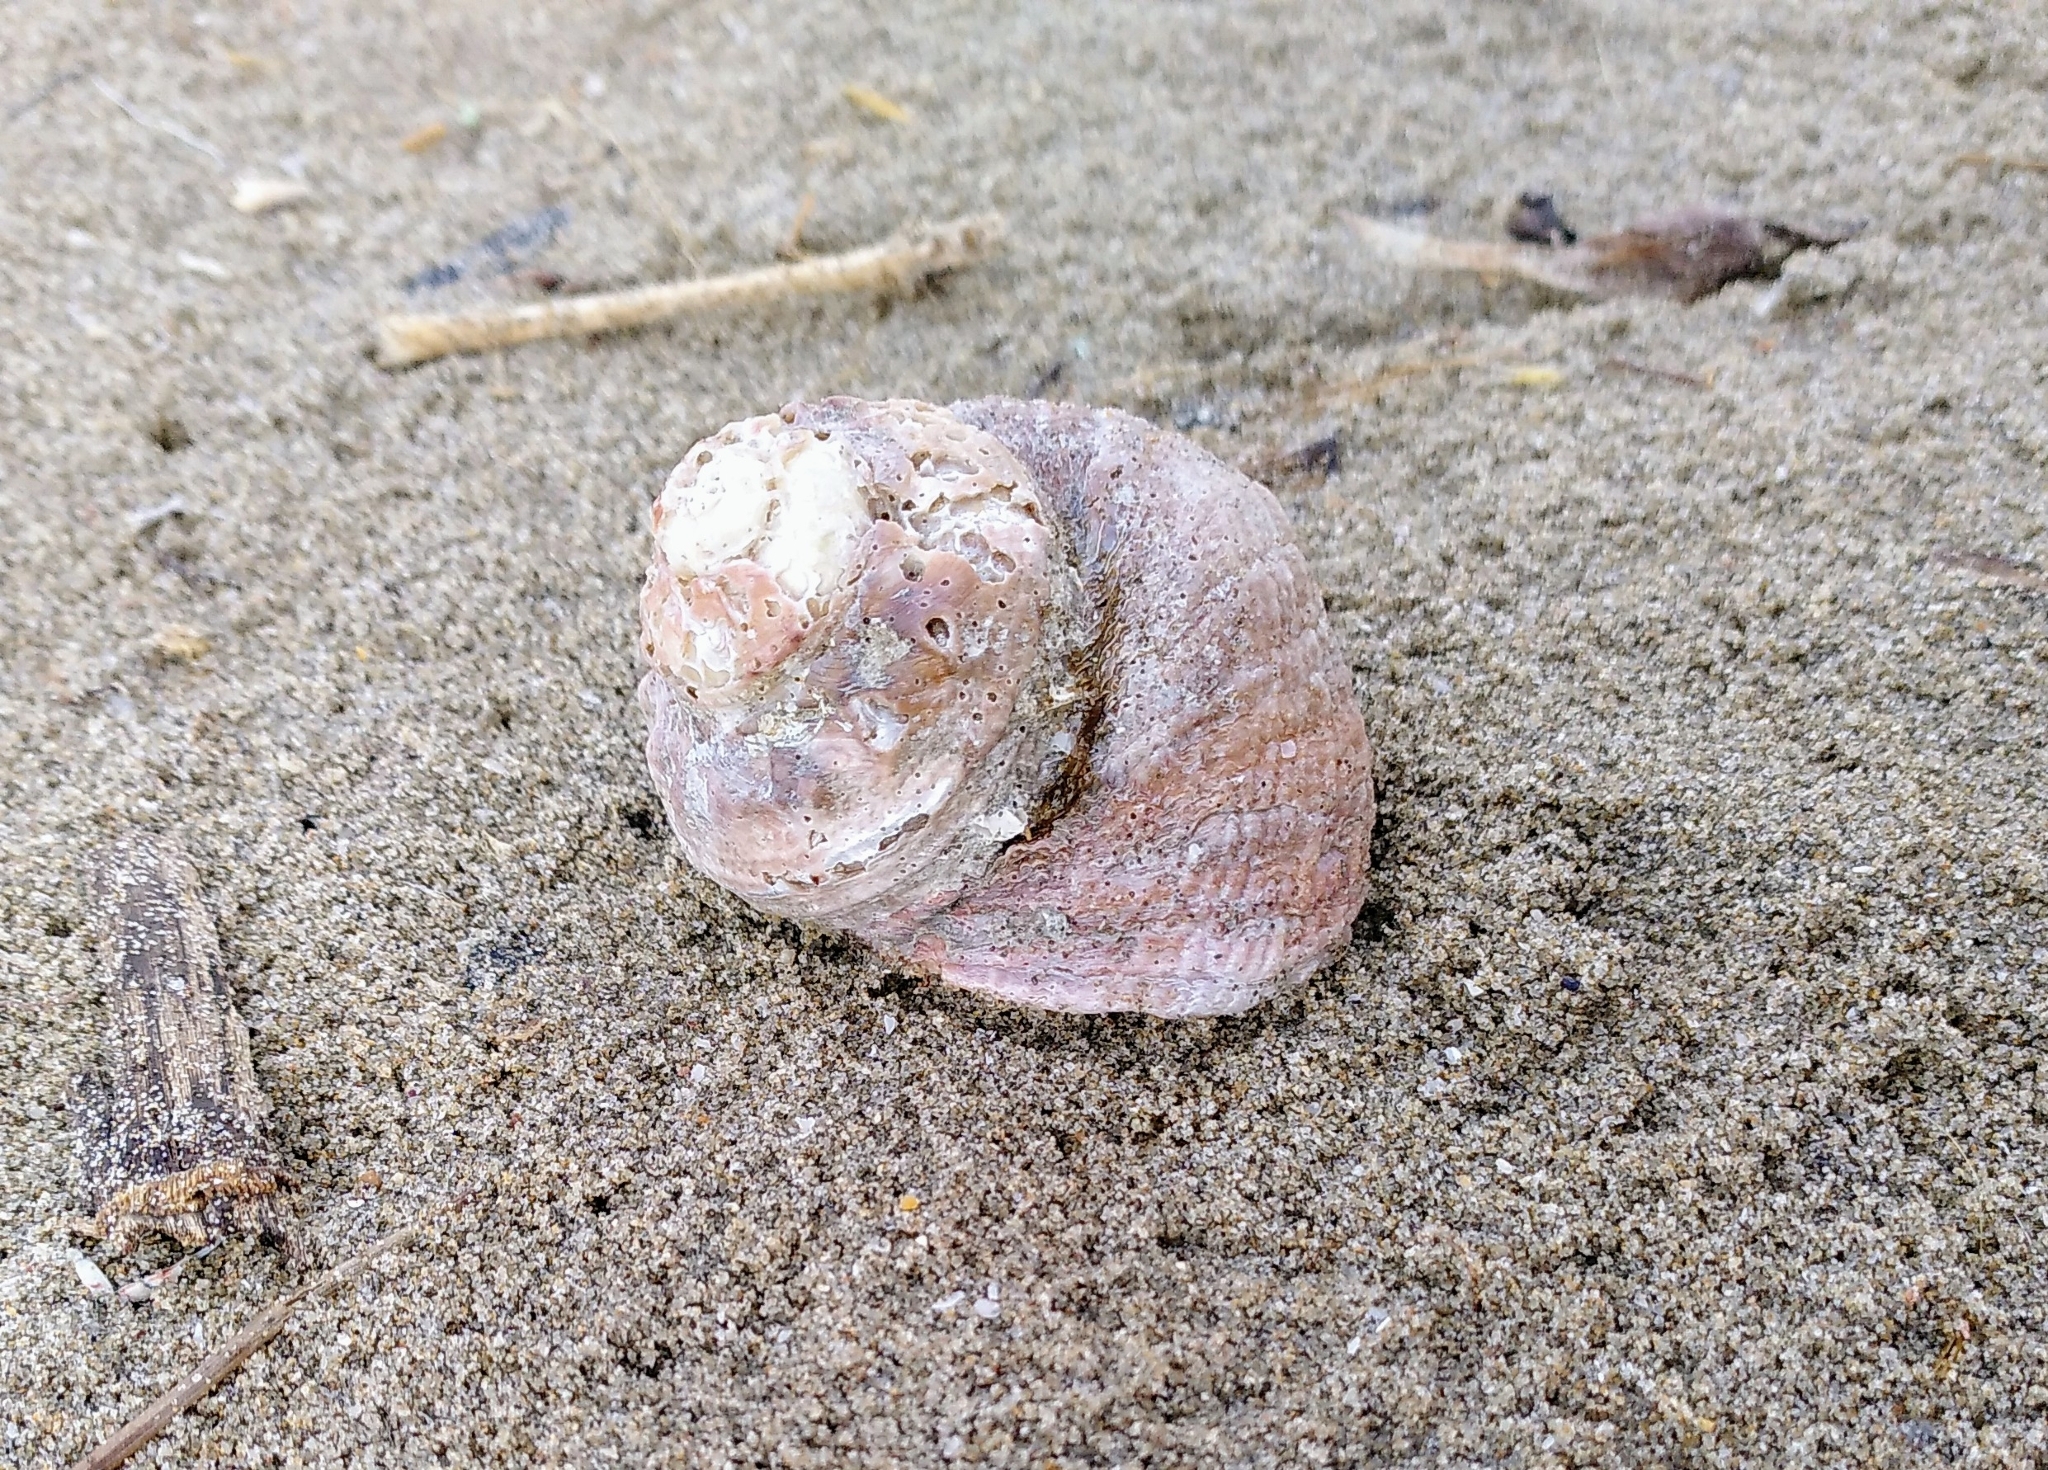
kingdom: Animalia
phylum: Mollusca
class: Gastropoda
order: Trochida
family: Turbinidae
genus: Bolma
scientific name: Bolma rugosa
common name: Rough star shell
